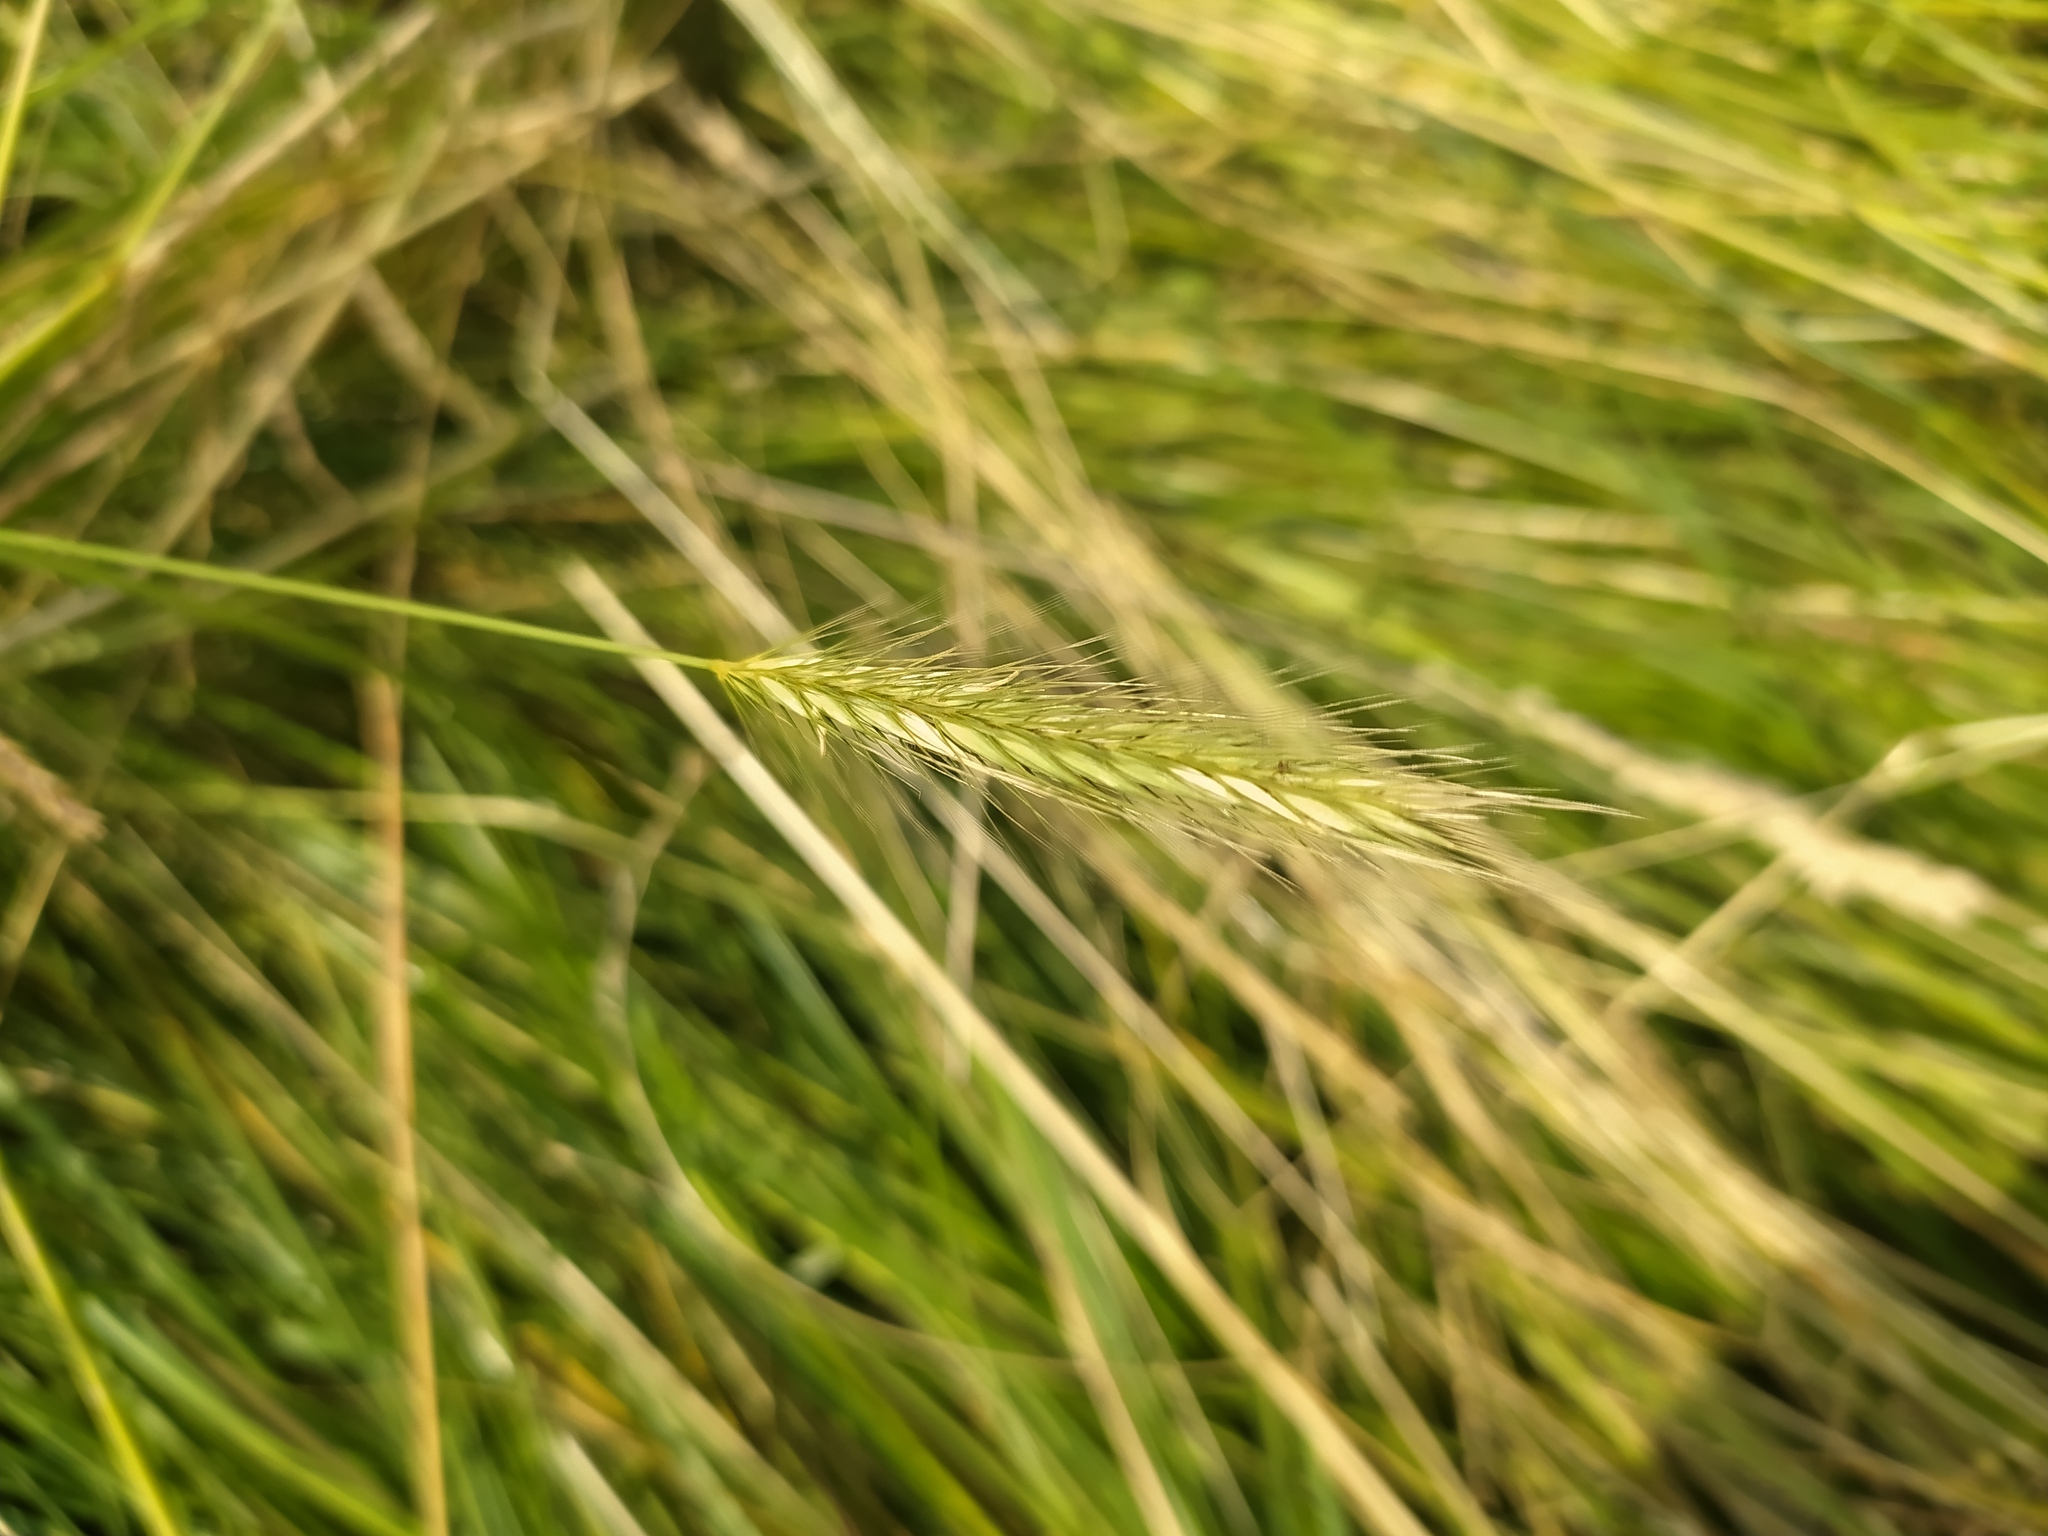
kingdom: Plantae
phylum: Tracheophyta
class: Liliopsida
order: Poales
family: Poaceae
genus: Hordeum
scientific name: Hordeum secalinum
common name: Meadow barley
